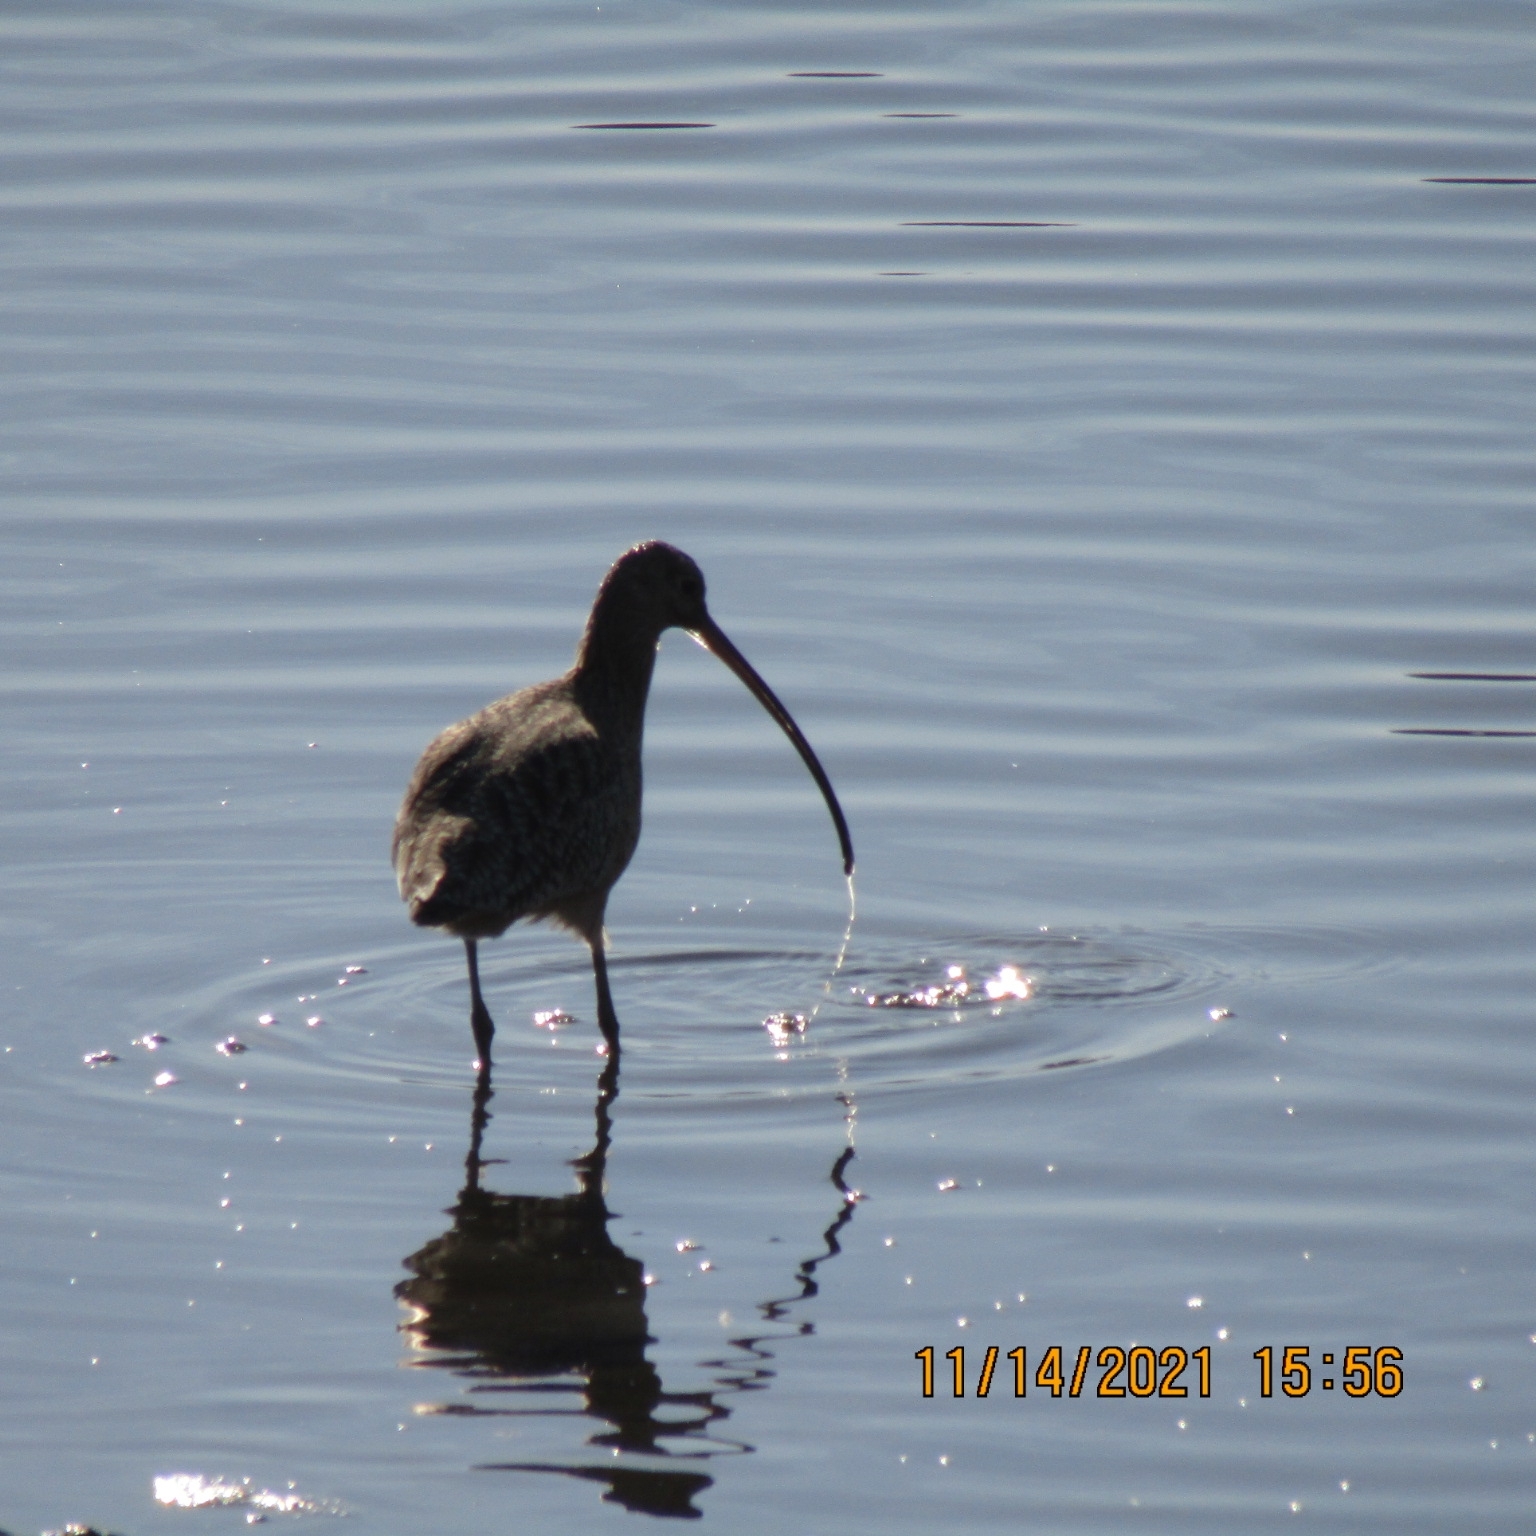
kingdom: Animalia
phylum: Chordata
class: Aves
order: Charadriiformes
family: Scolopacidae
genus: Numenius
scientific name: Numenius americanus
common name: Long-billed curlew
